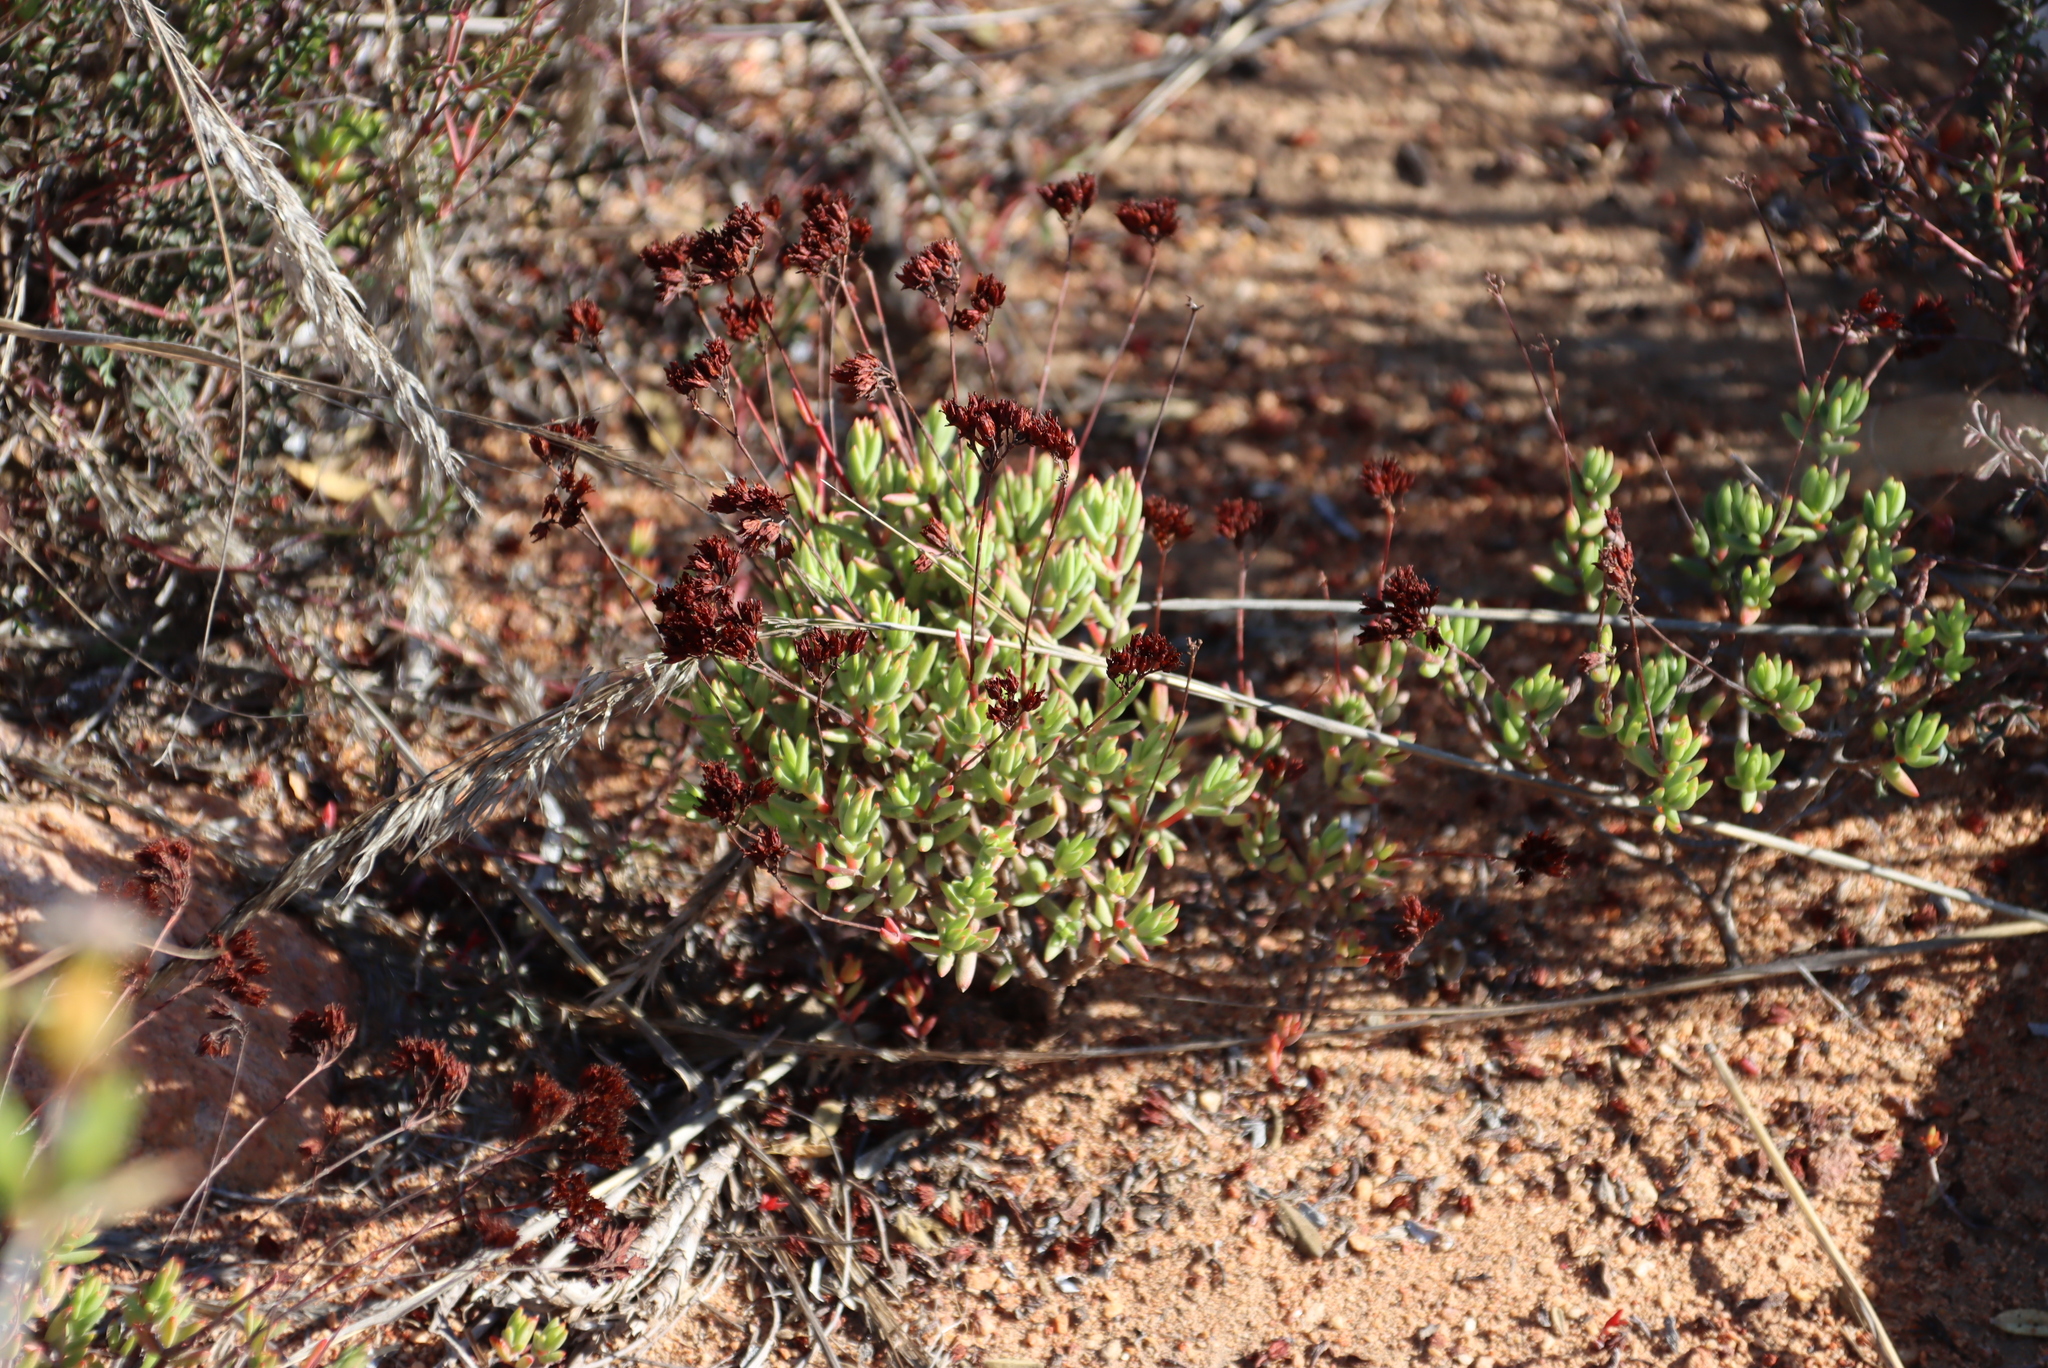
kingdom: Plantae
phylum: Tracheophyta
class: Magnoliopsida
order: Saxifragales
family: Crassulaceae
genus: Crassula
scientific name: Crassula biplanata
